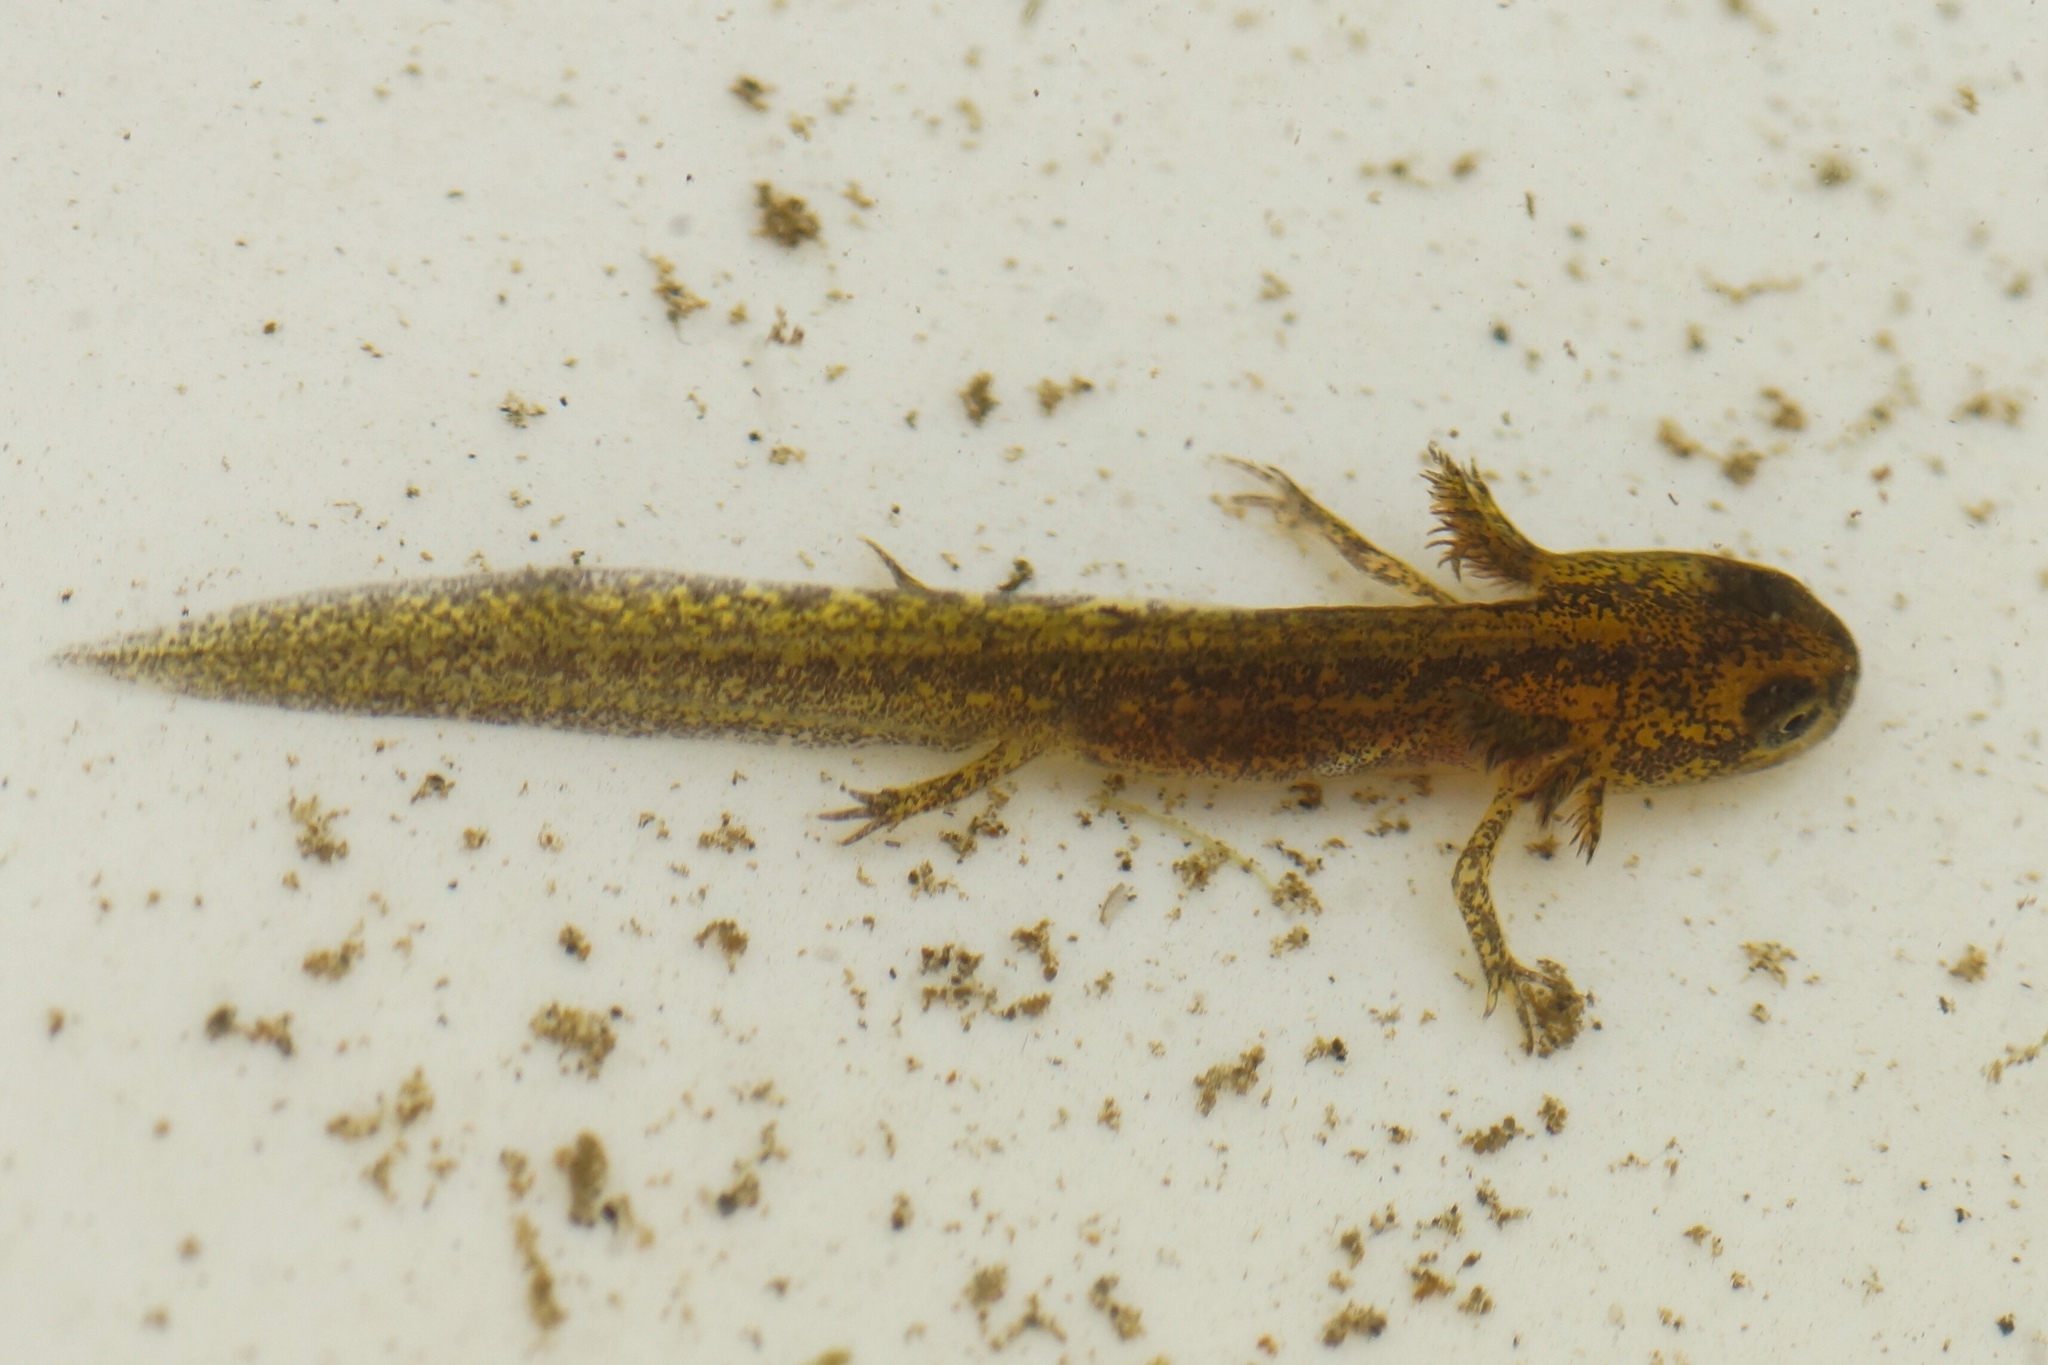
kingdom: Animalia
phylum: Chordata
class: Amphibia
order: Caudata
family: Salamandridae
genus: Lissotriton
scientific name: Lissotriton vulgaris
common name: Smooth newt
